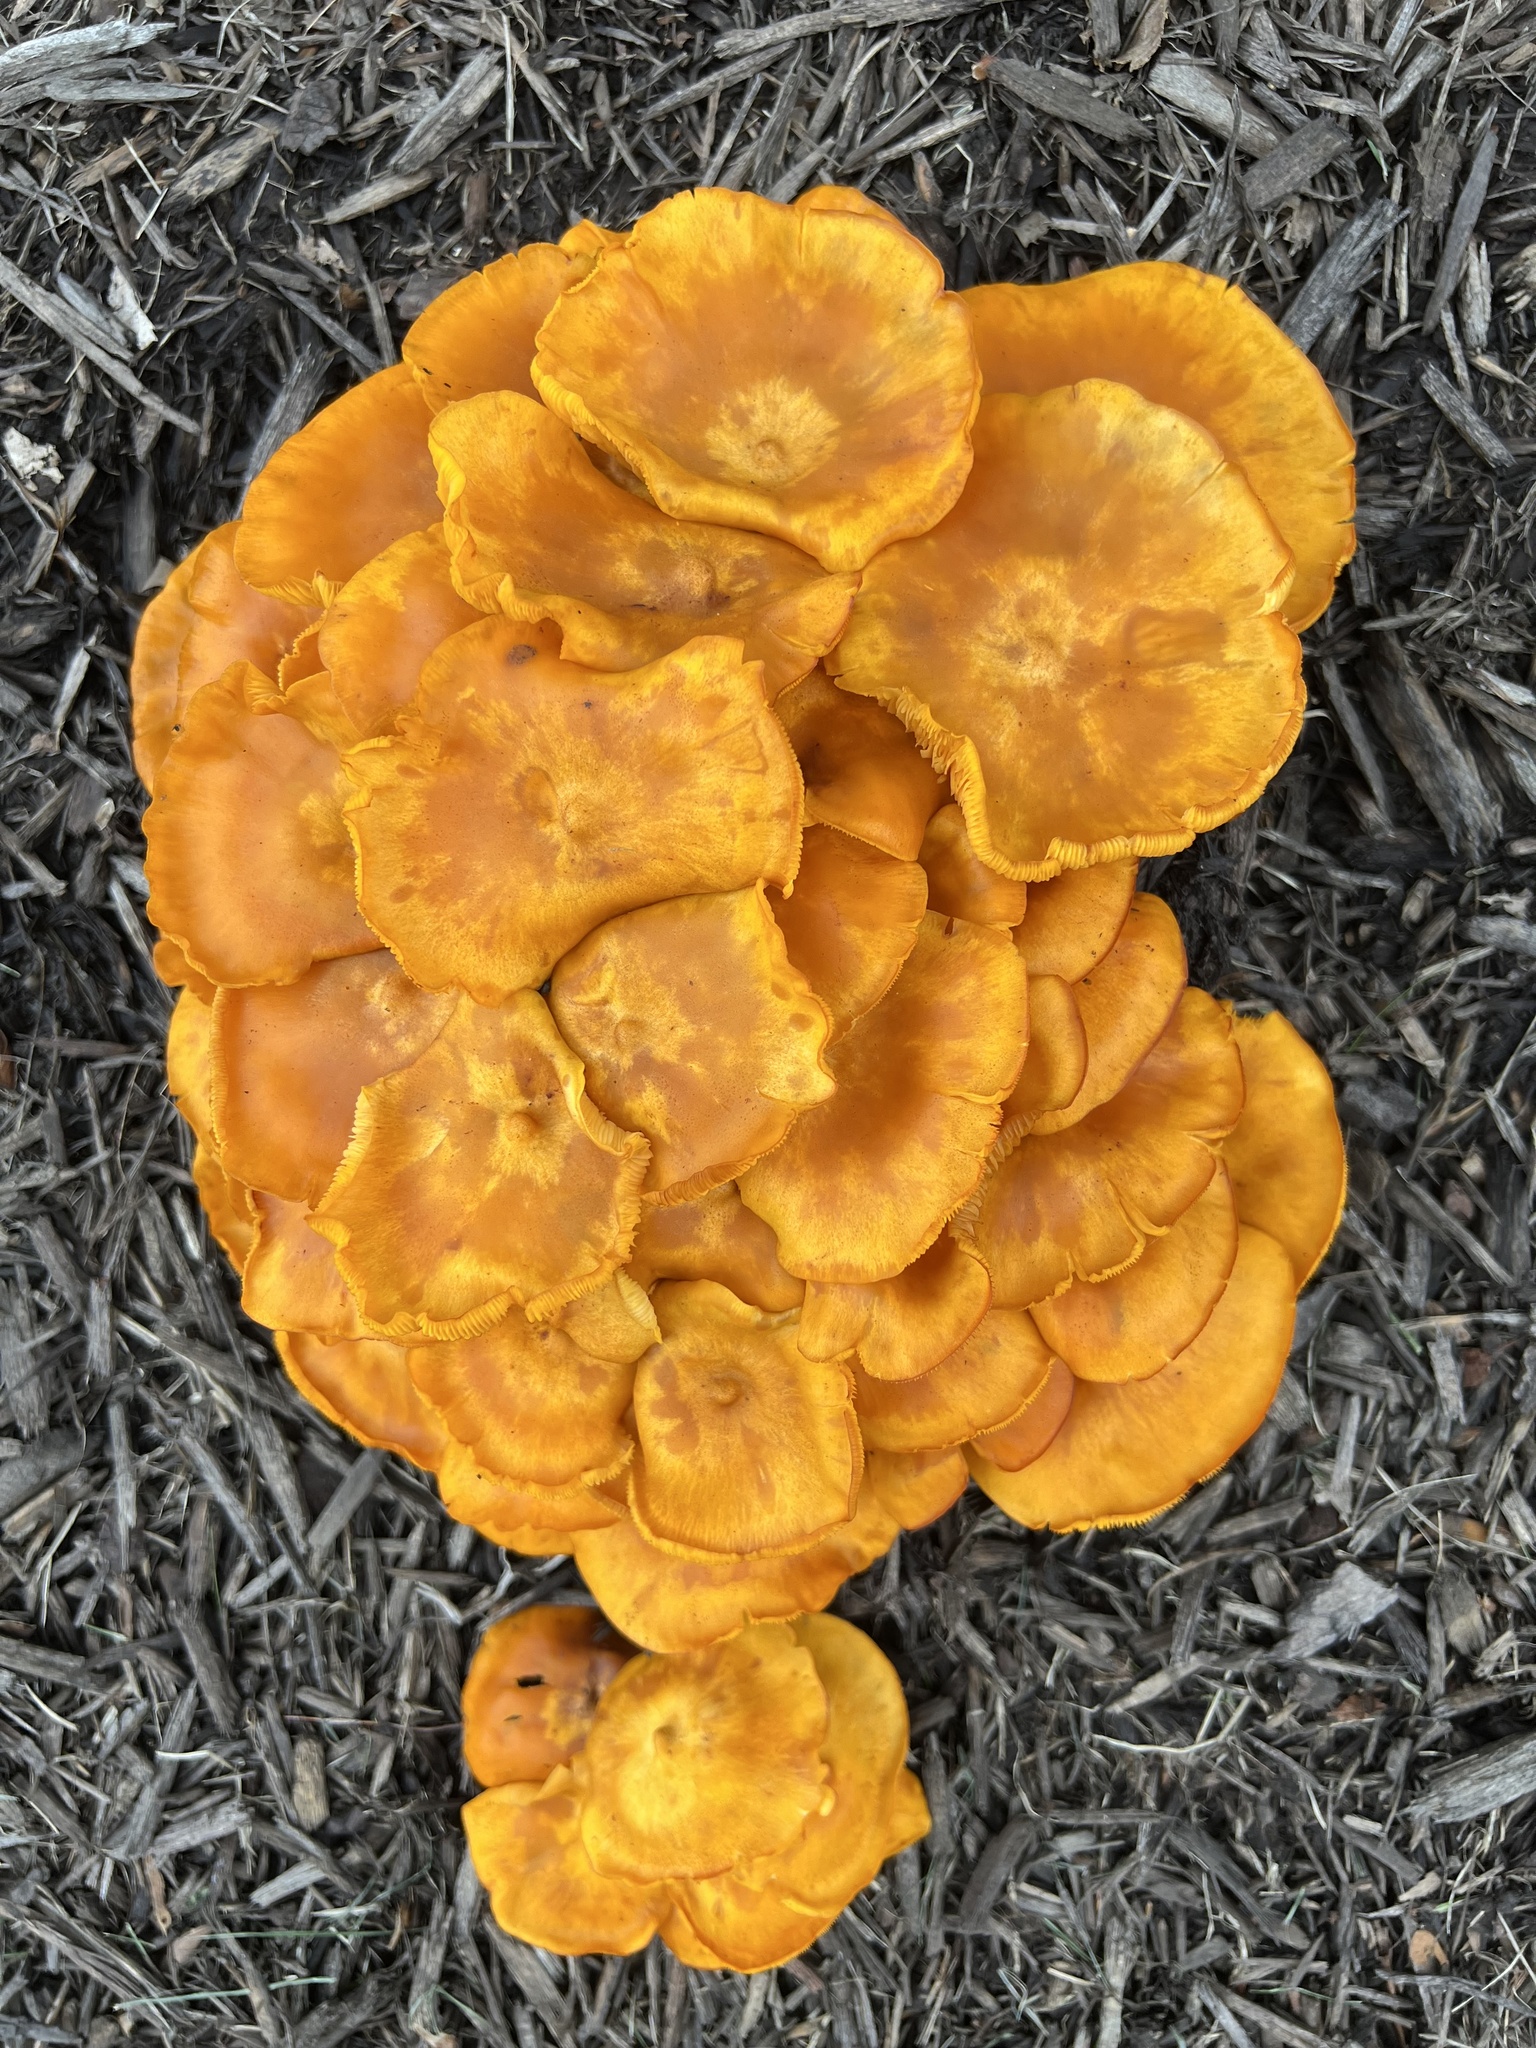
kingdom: Fungi
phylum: Basidiomycota
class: Agaricomycetes
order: Agaricales
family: Omphalotaceae
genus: Omphalotus
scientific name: Omphalotus illudens
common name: Jack o lantern
